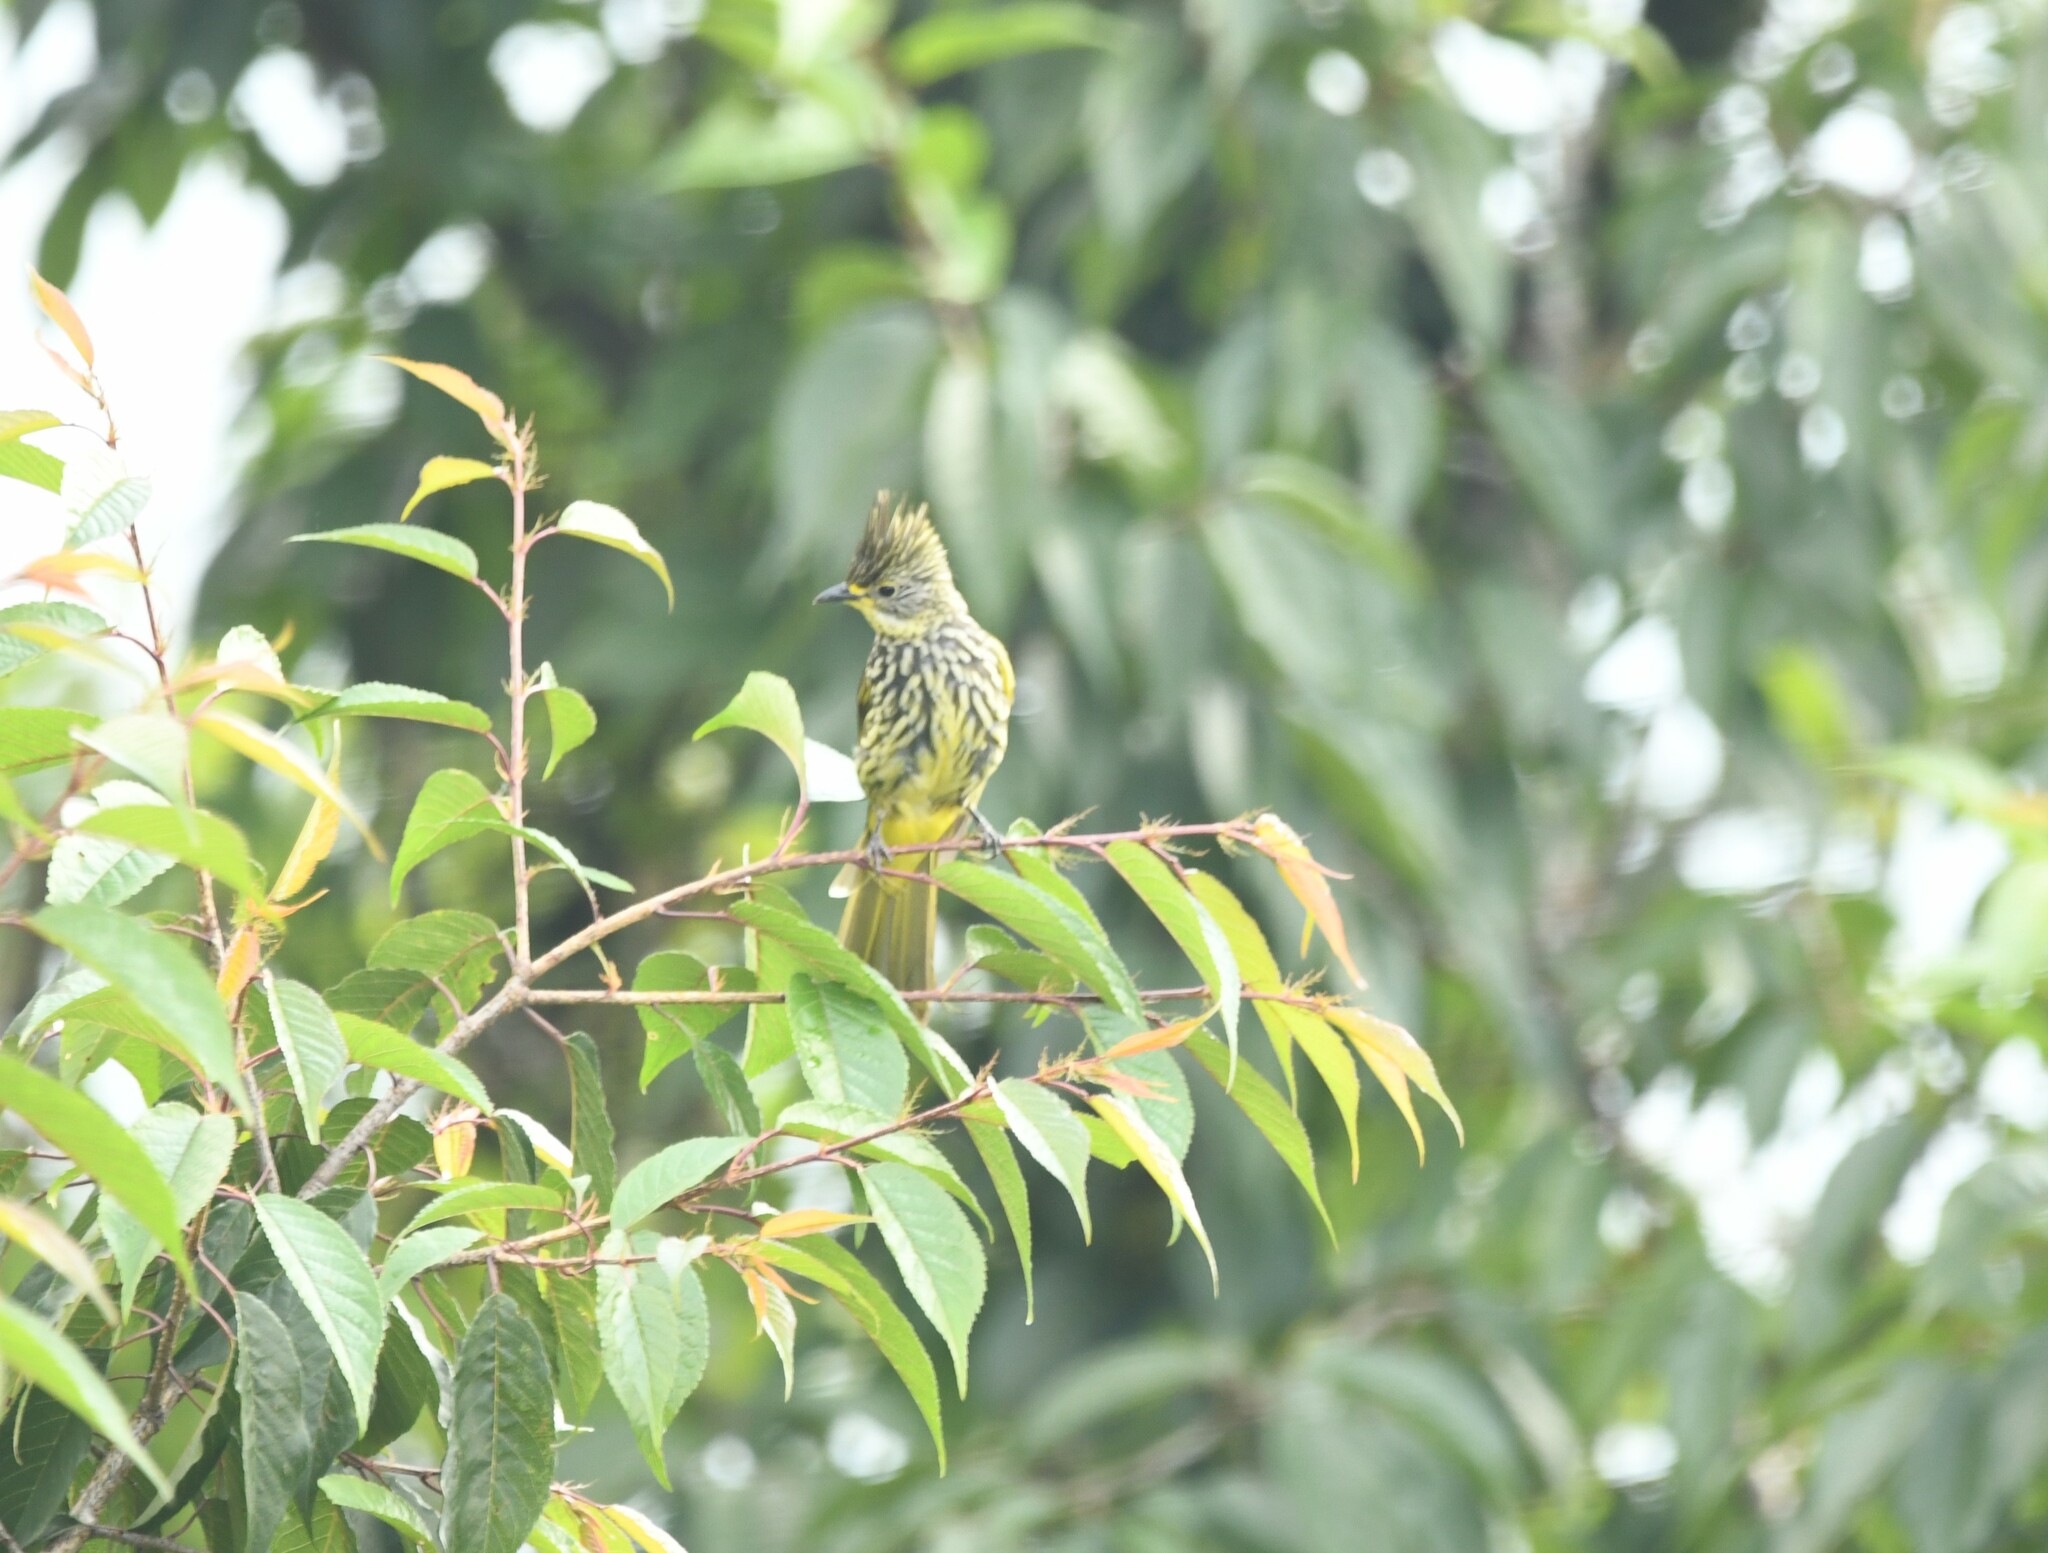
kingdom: Animalia
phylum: Chordata
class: Aves
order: Passeriformes
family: Pycnonotidae
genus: Pycnonotus
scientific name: Pycnonotus striatus
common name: Striated bulbul
